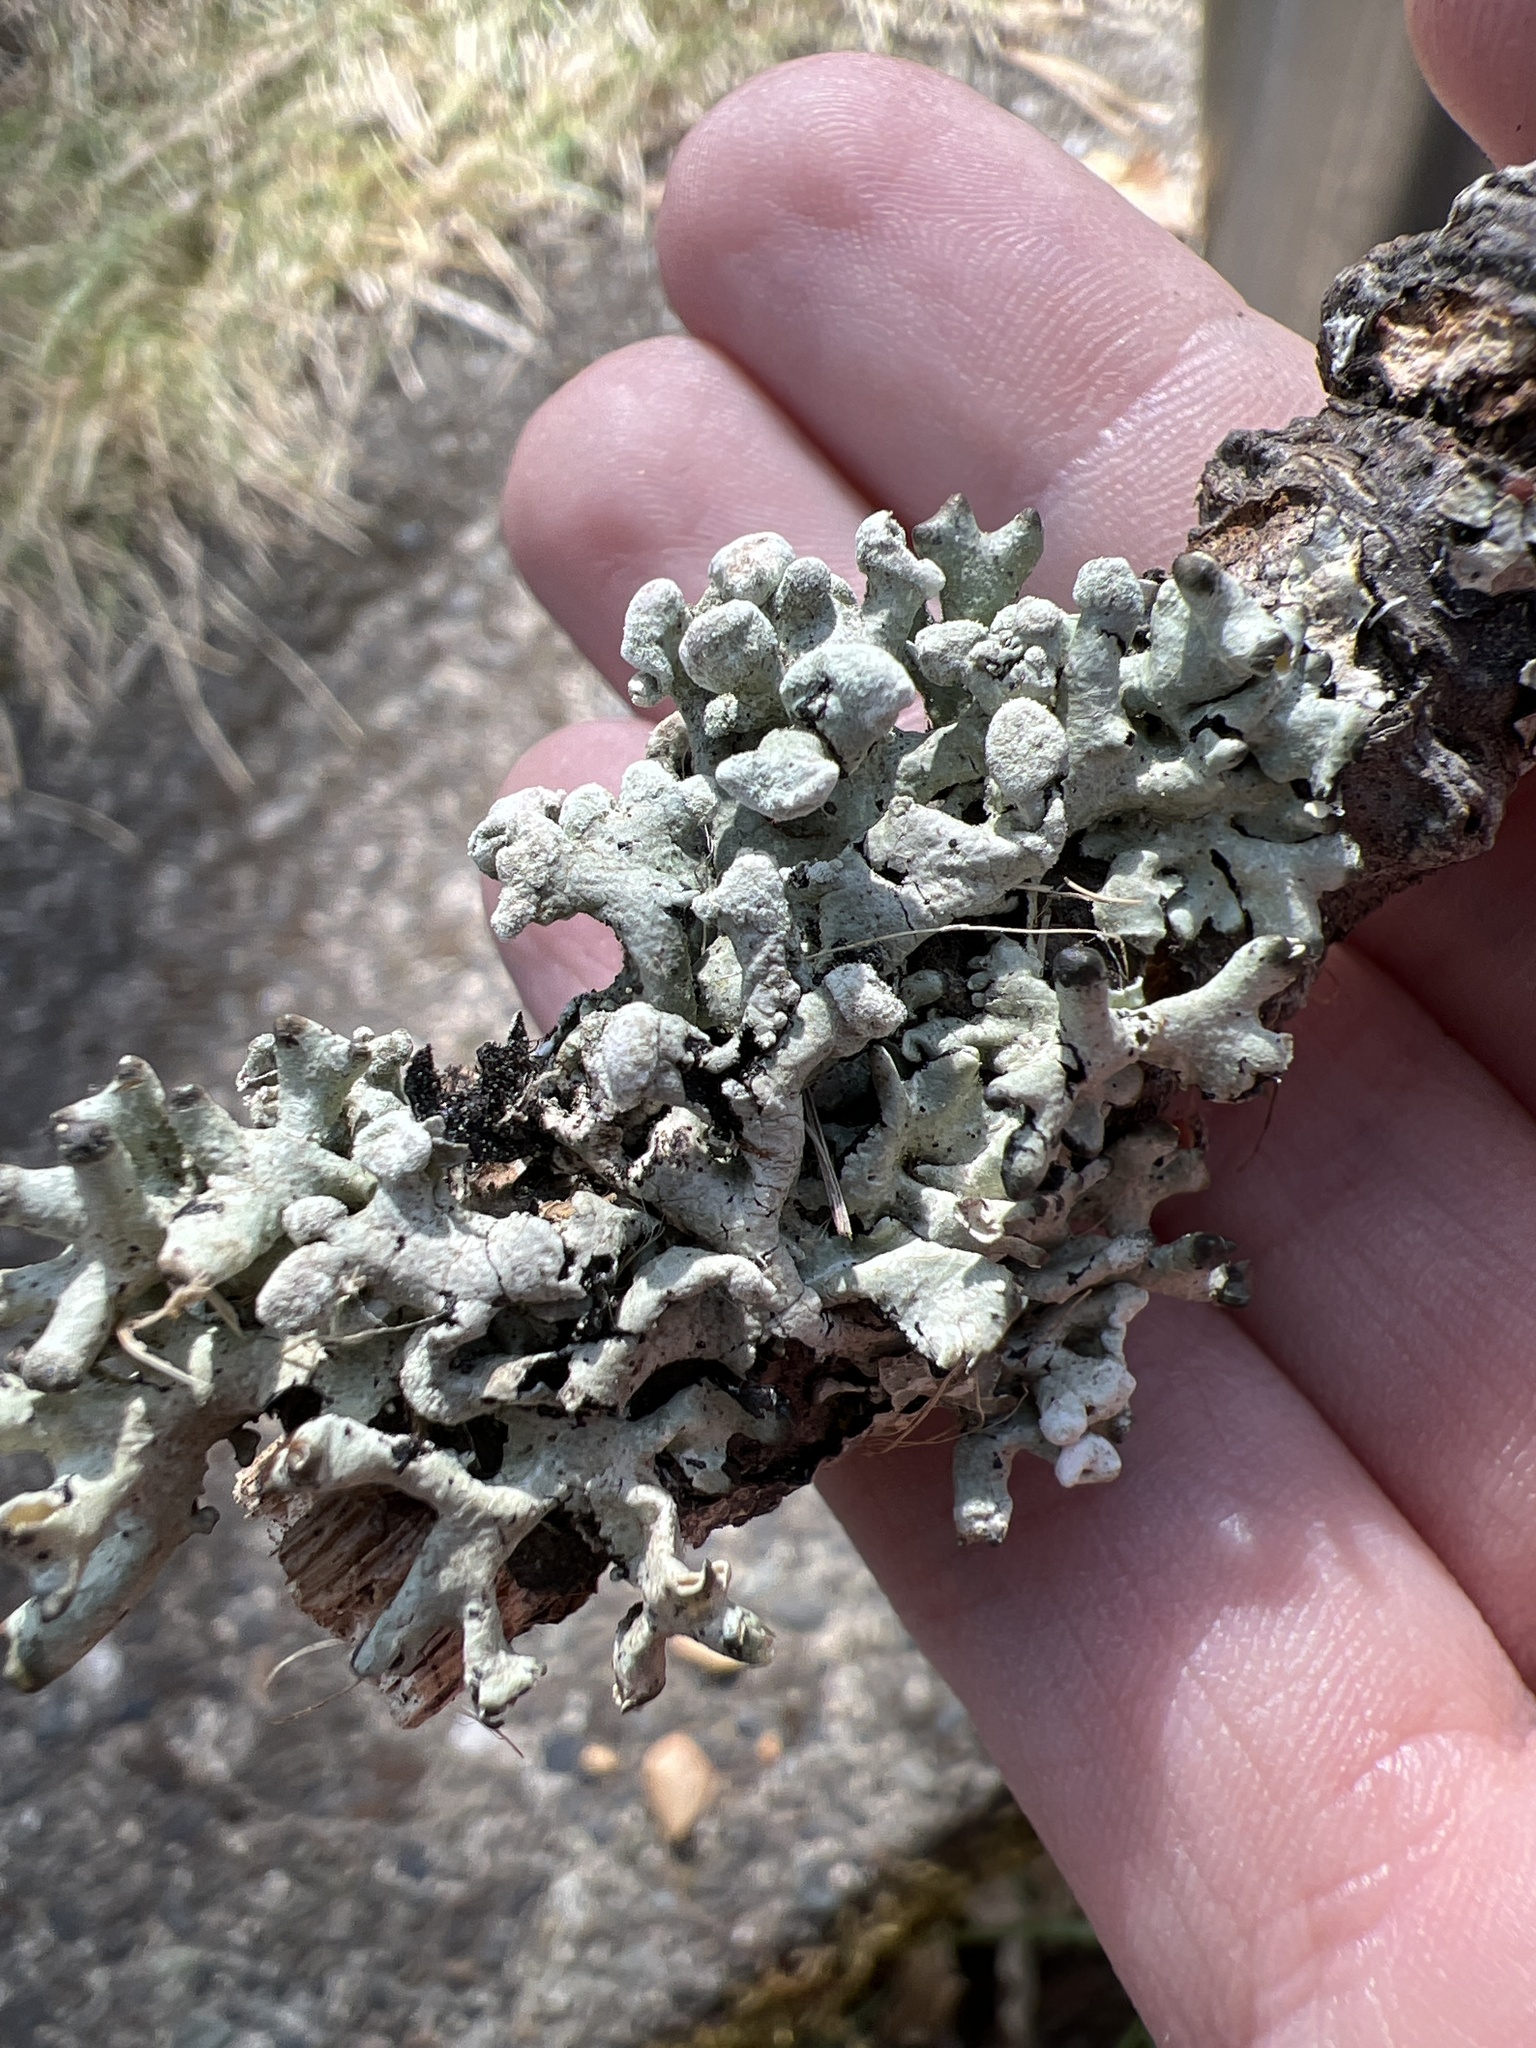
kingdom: Fungi
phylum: Ascomycota
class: Lecanoromycetes
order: Lecanorales
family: Parmeliaceae
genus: Hypogymnia
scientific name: Hypogymnia tubulosa
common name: Powder-headed tube lichen
